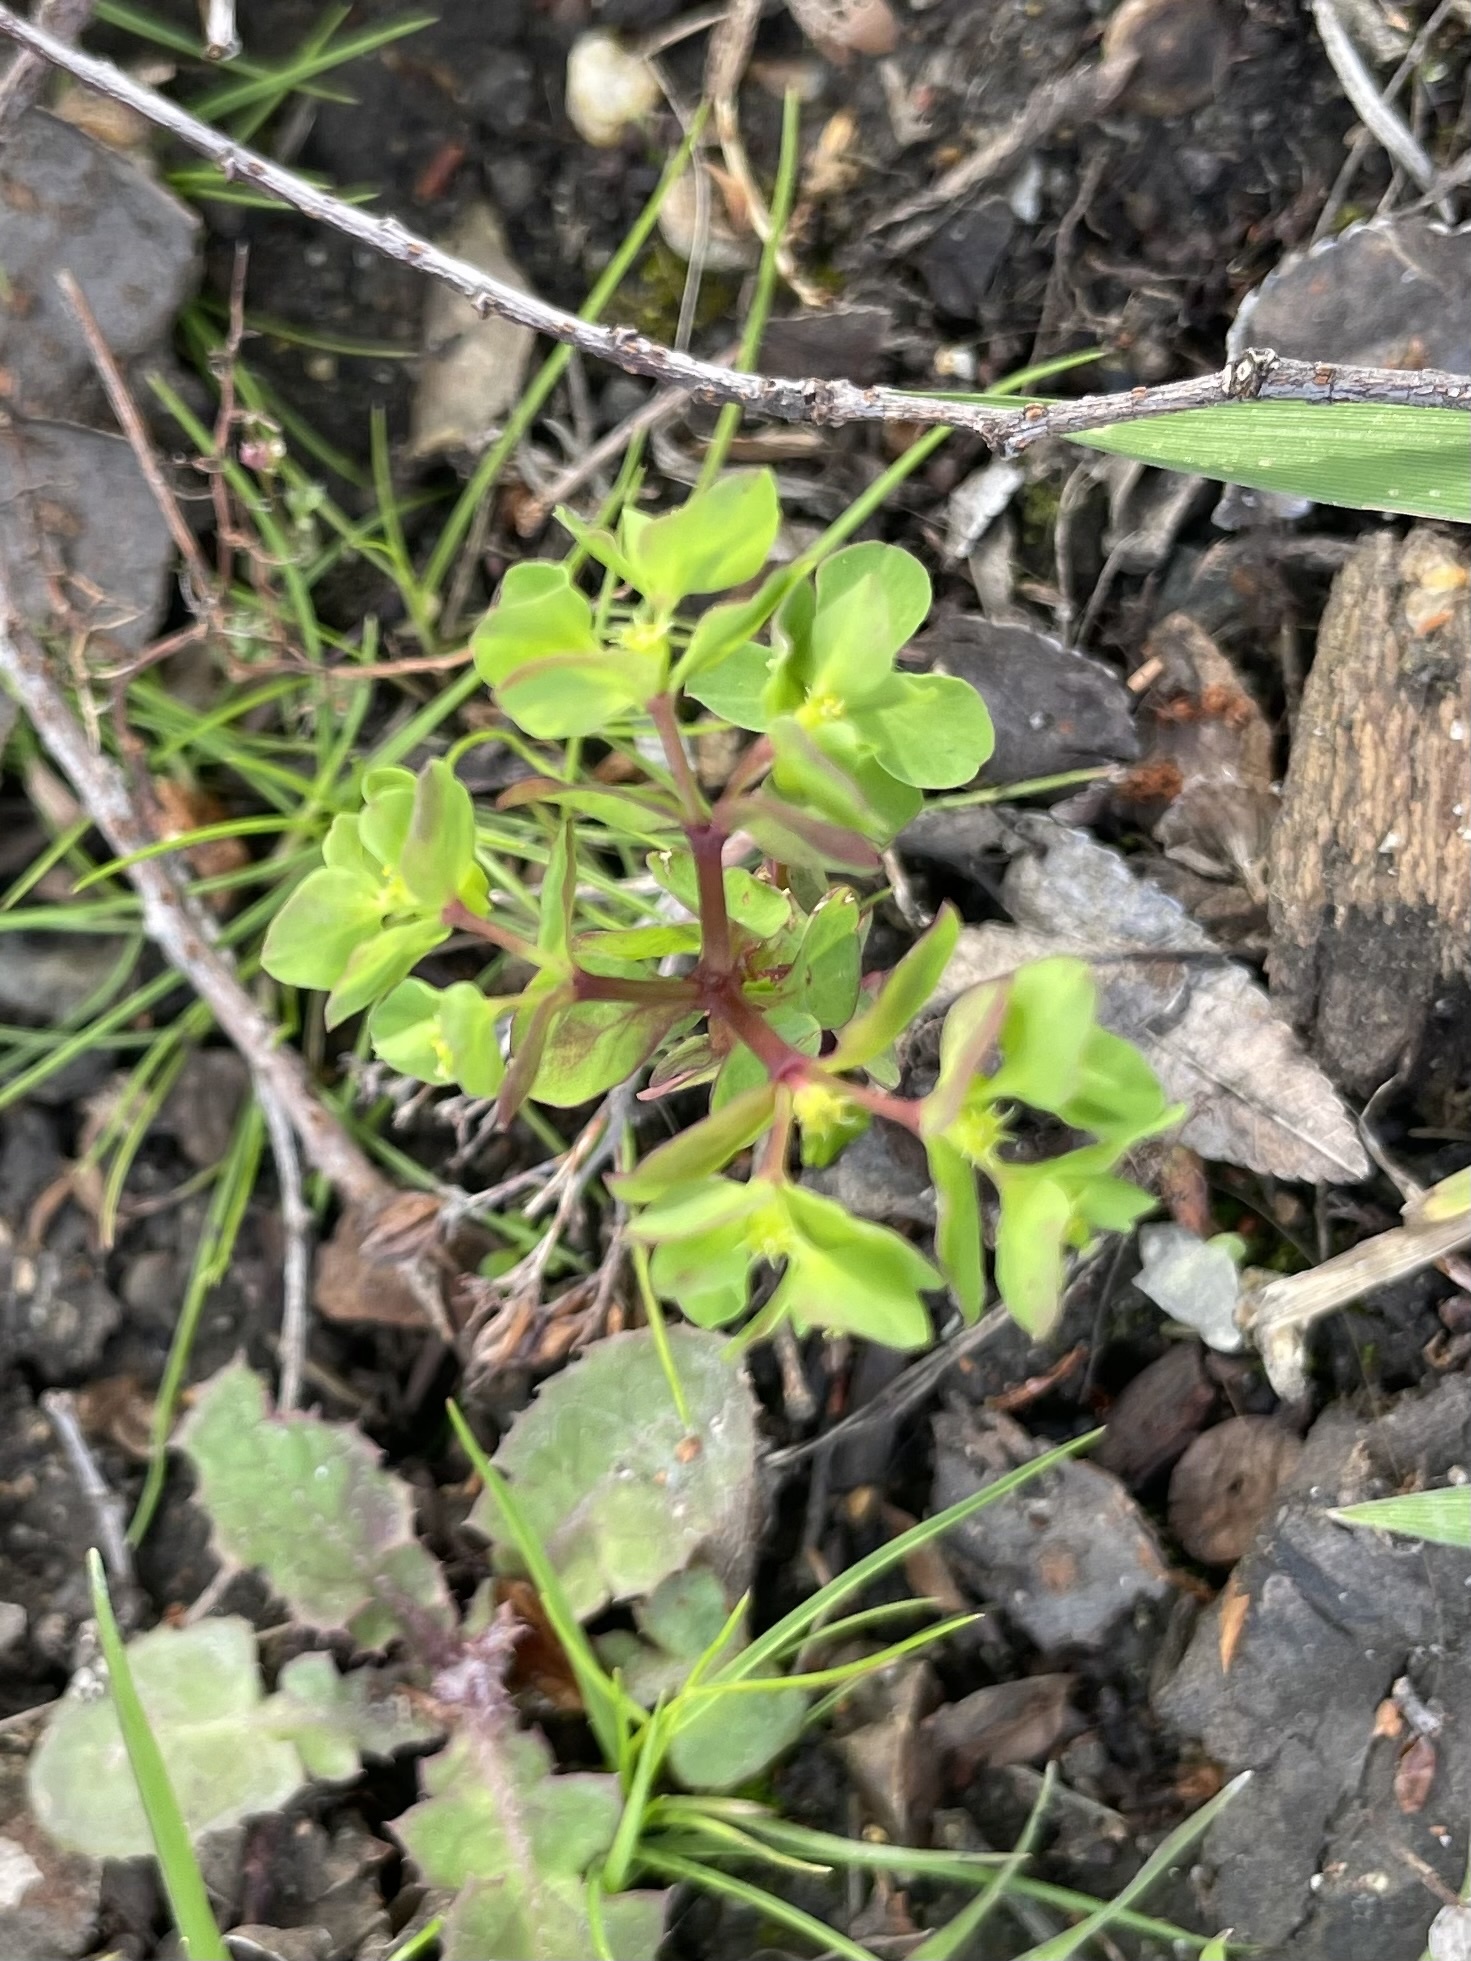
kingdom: Plantae
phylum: Tracheophyta
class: Magnoliopsida
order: Malpighiales
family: Euphorbiaceae
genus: Euphorbia
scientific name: Euphorbia peplus
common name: Petty spurge
